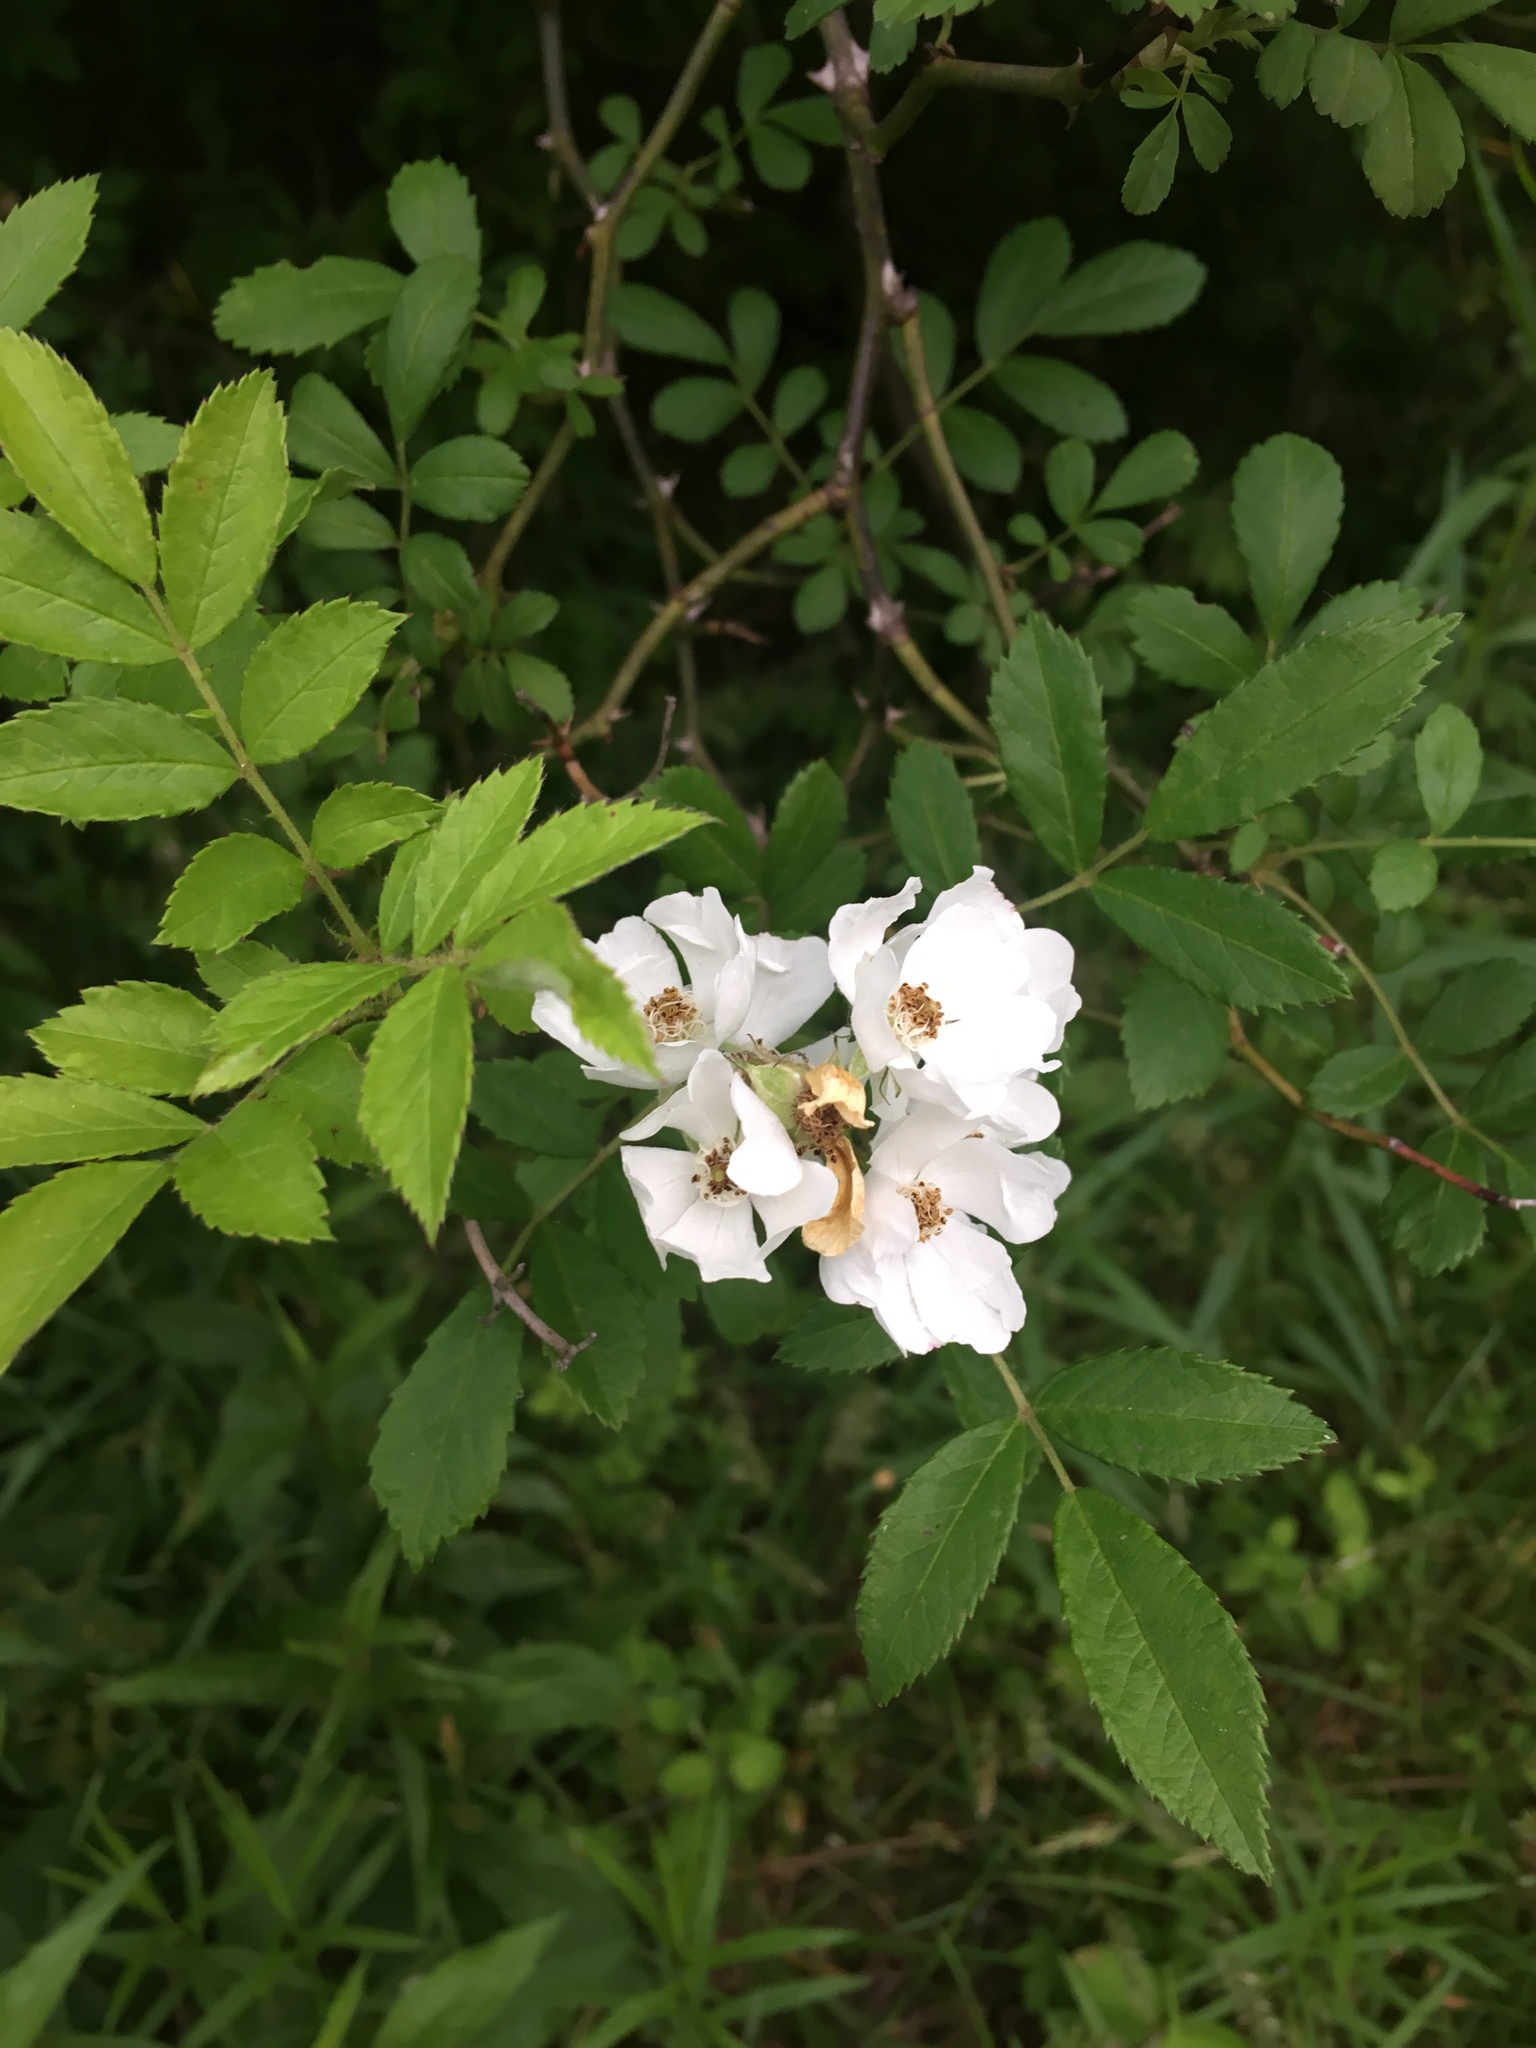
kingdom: Plantae
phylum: Tracheophyta
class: Magnoliopsida
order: Rosales
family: Rosaceae
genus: Rosa
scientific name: Rosa multiflora
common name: Multiflora rose
